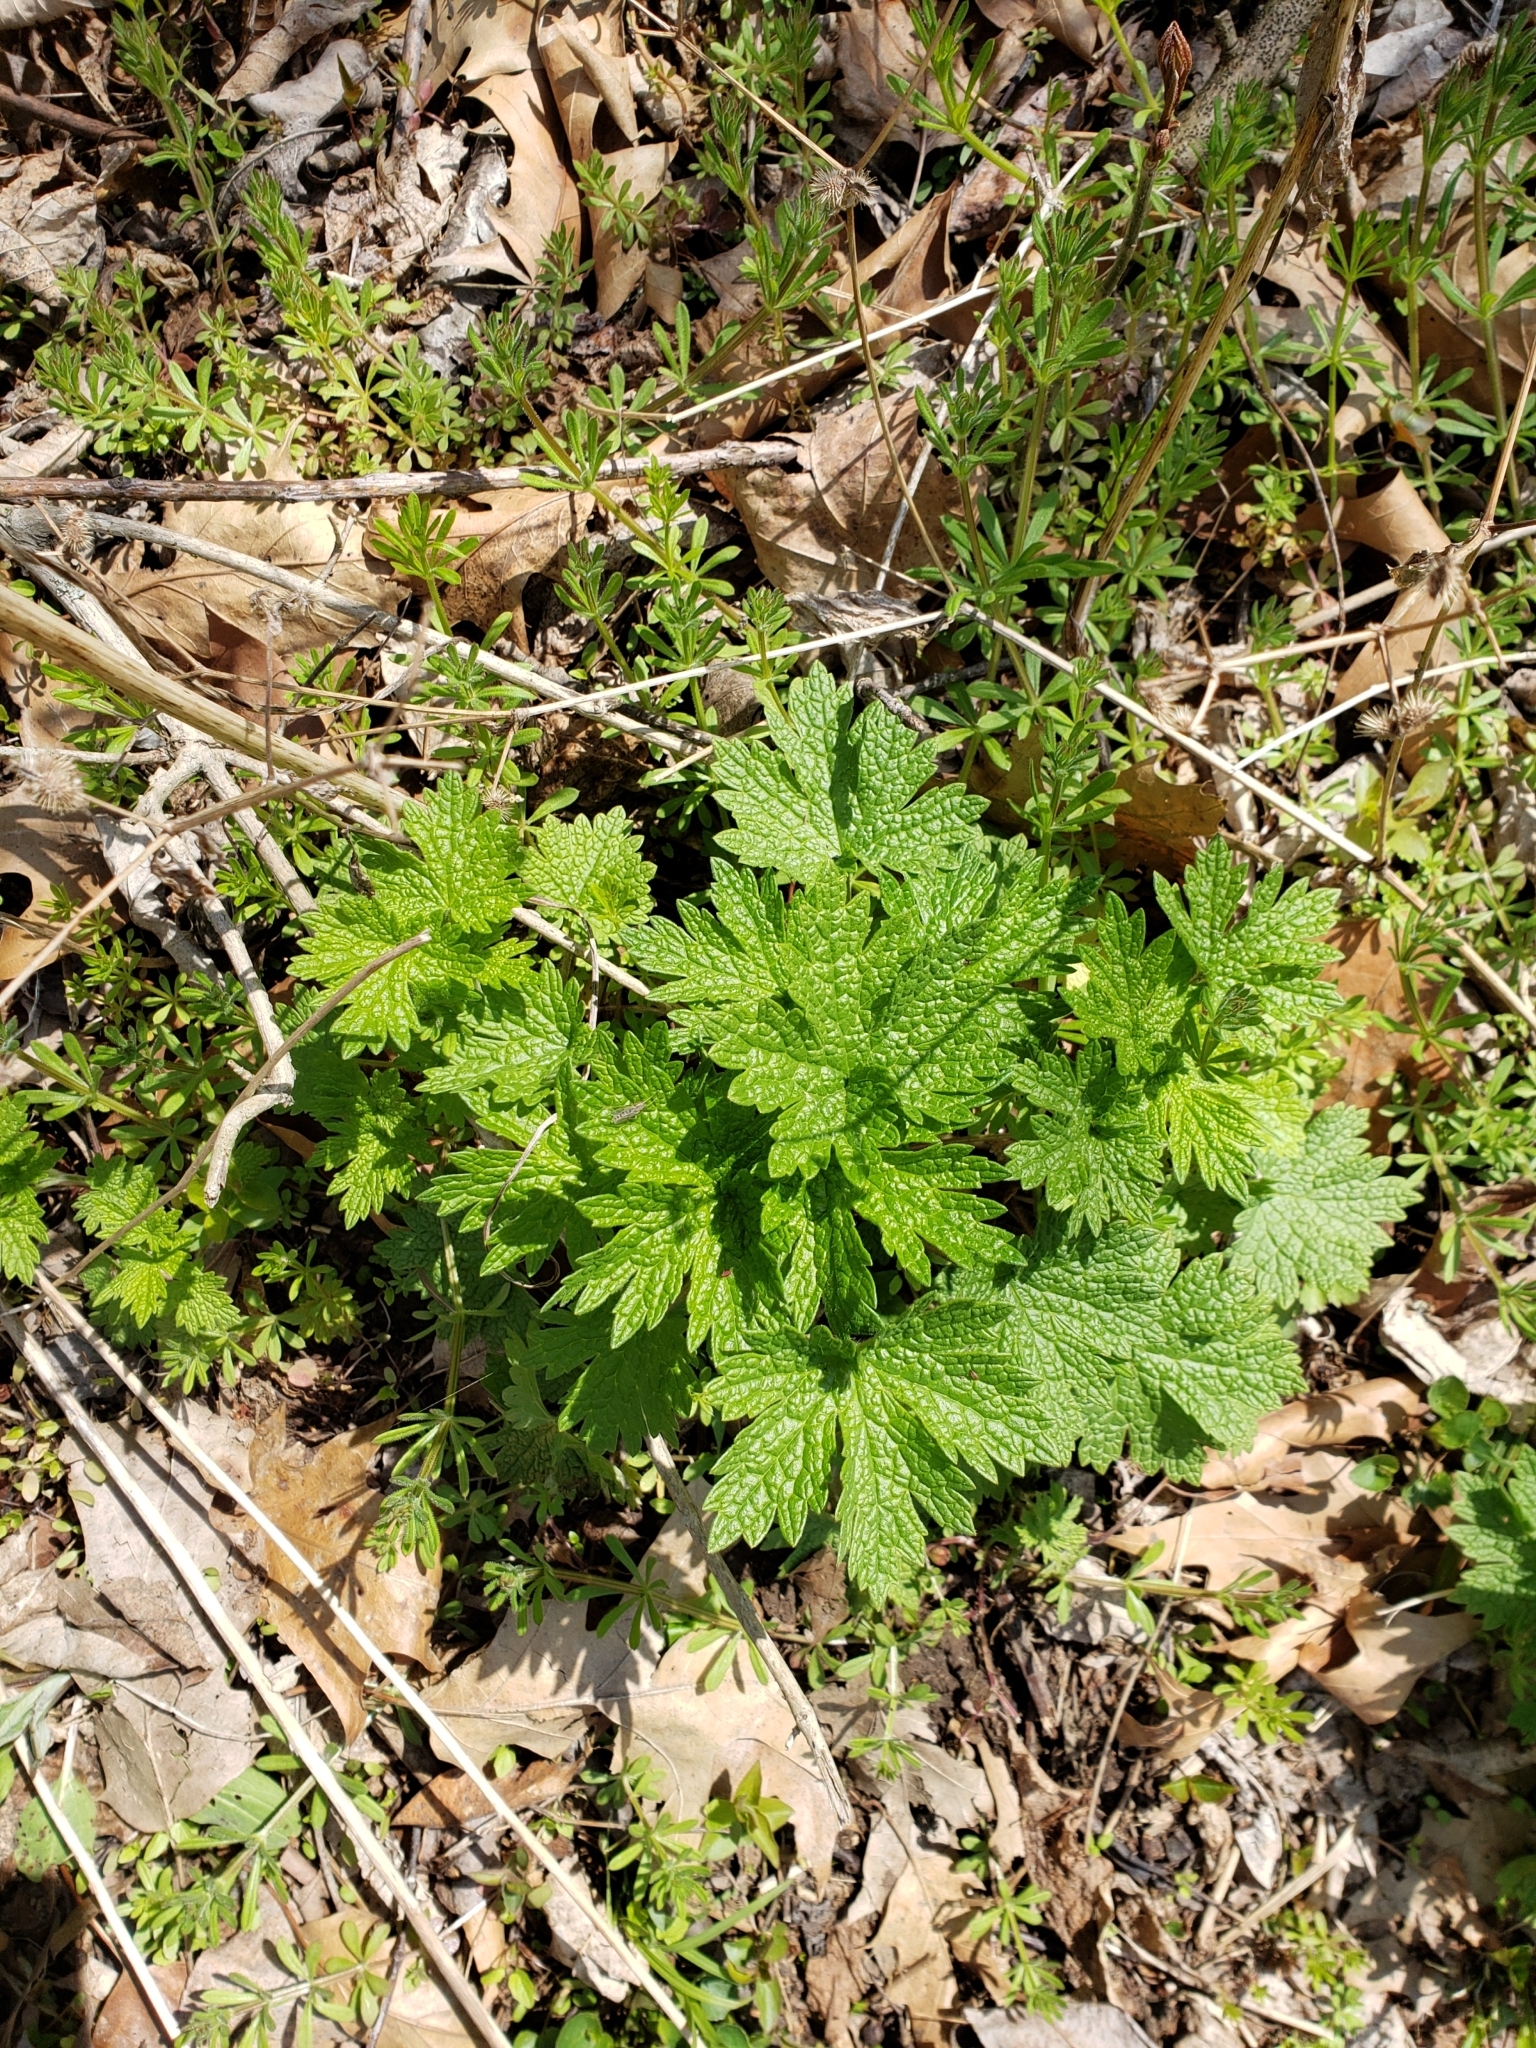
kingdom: Plantae
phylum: Tracheophyta
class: Magnoliopsida
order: Lamiales
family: Lamiaceae
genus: Leonurus
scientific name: Leonurus cardiaca
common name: Motherwort
